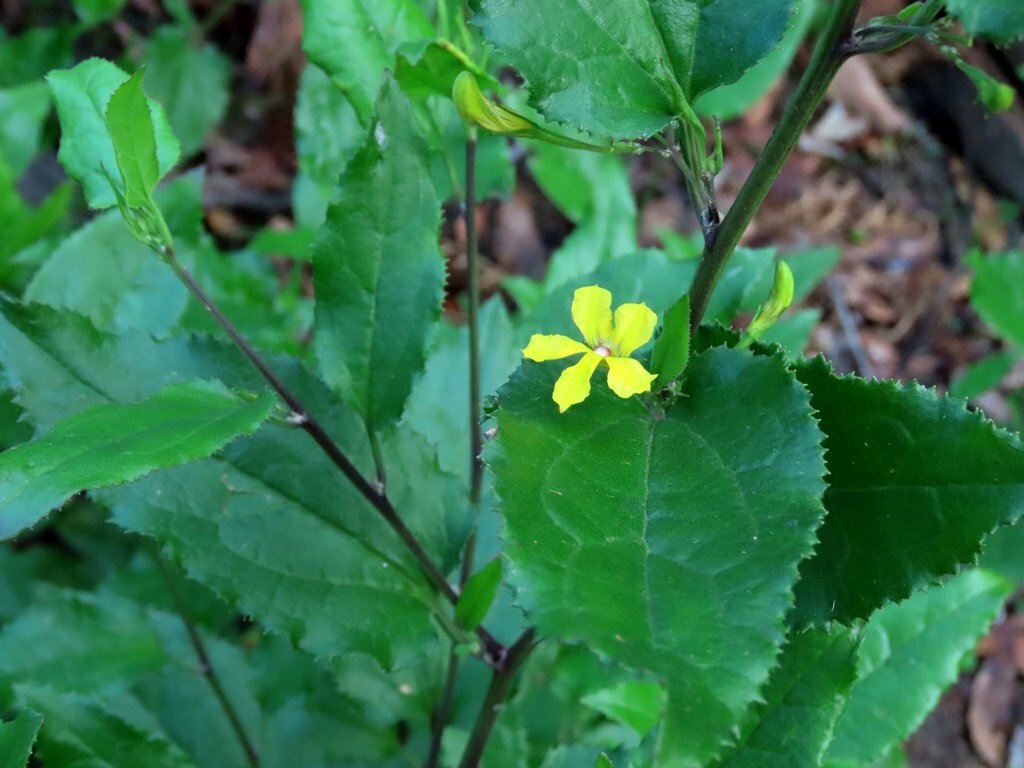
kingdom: Plantae
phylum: Tracheophyta
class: Magnoliopsida
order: Asterales
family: Goodeniaceae
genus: Goodenia
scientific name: Goodenia ovata
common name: Hop goodenia
